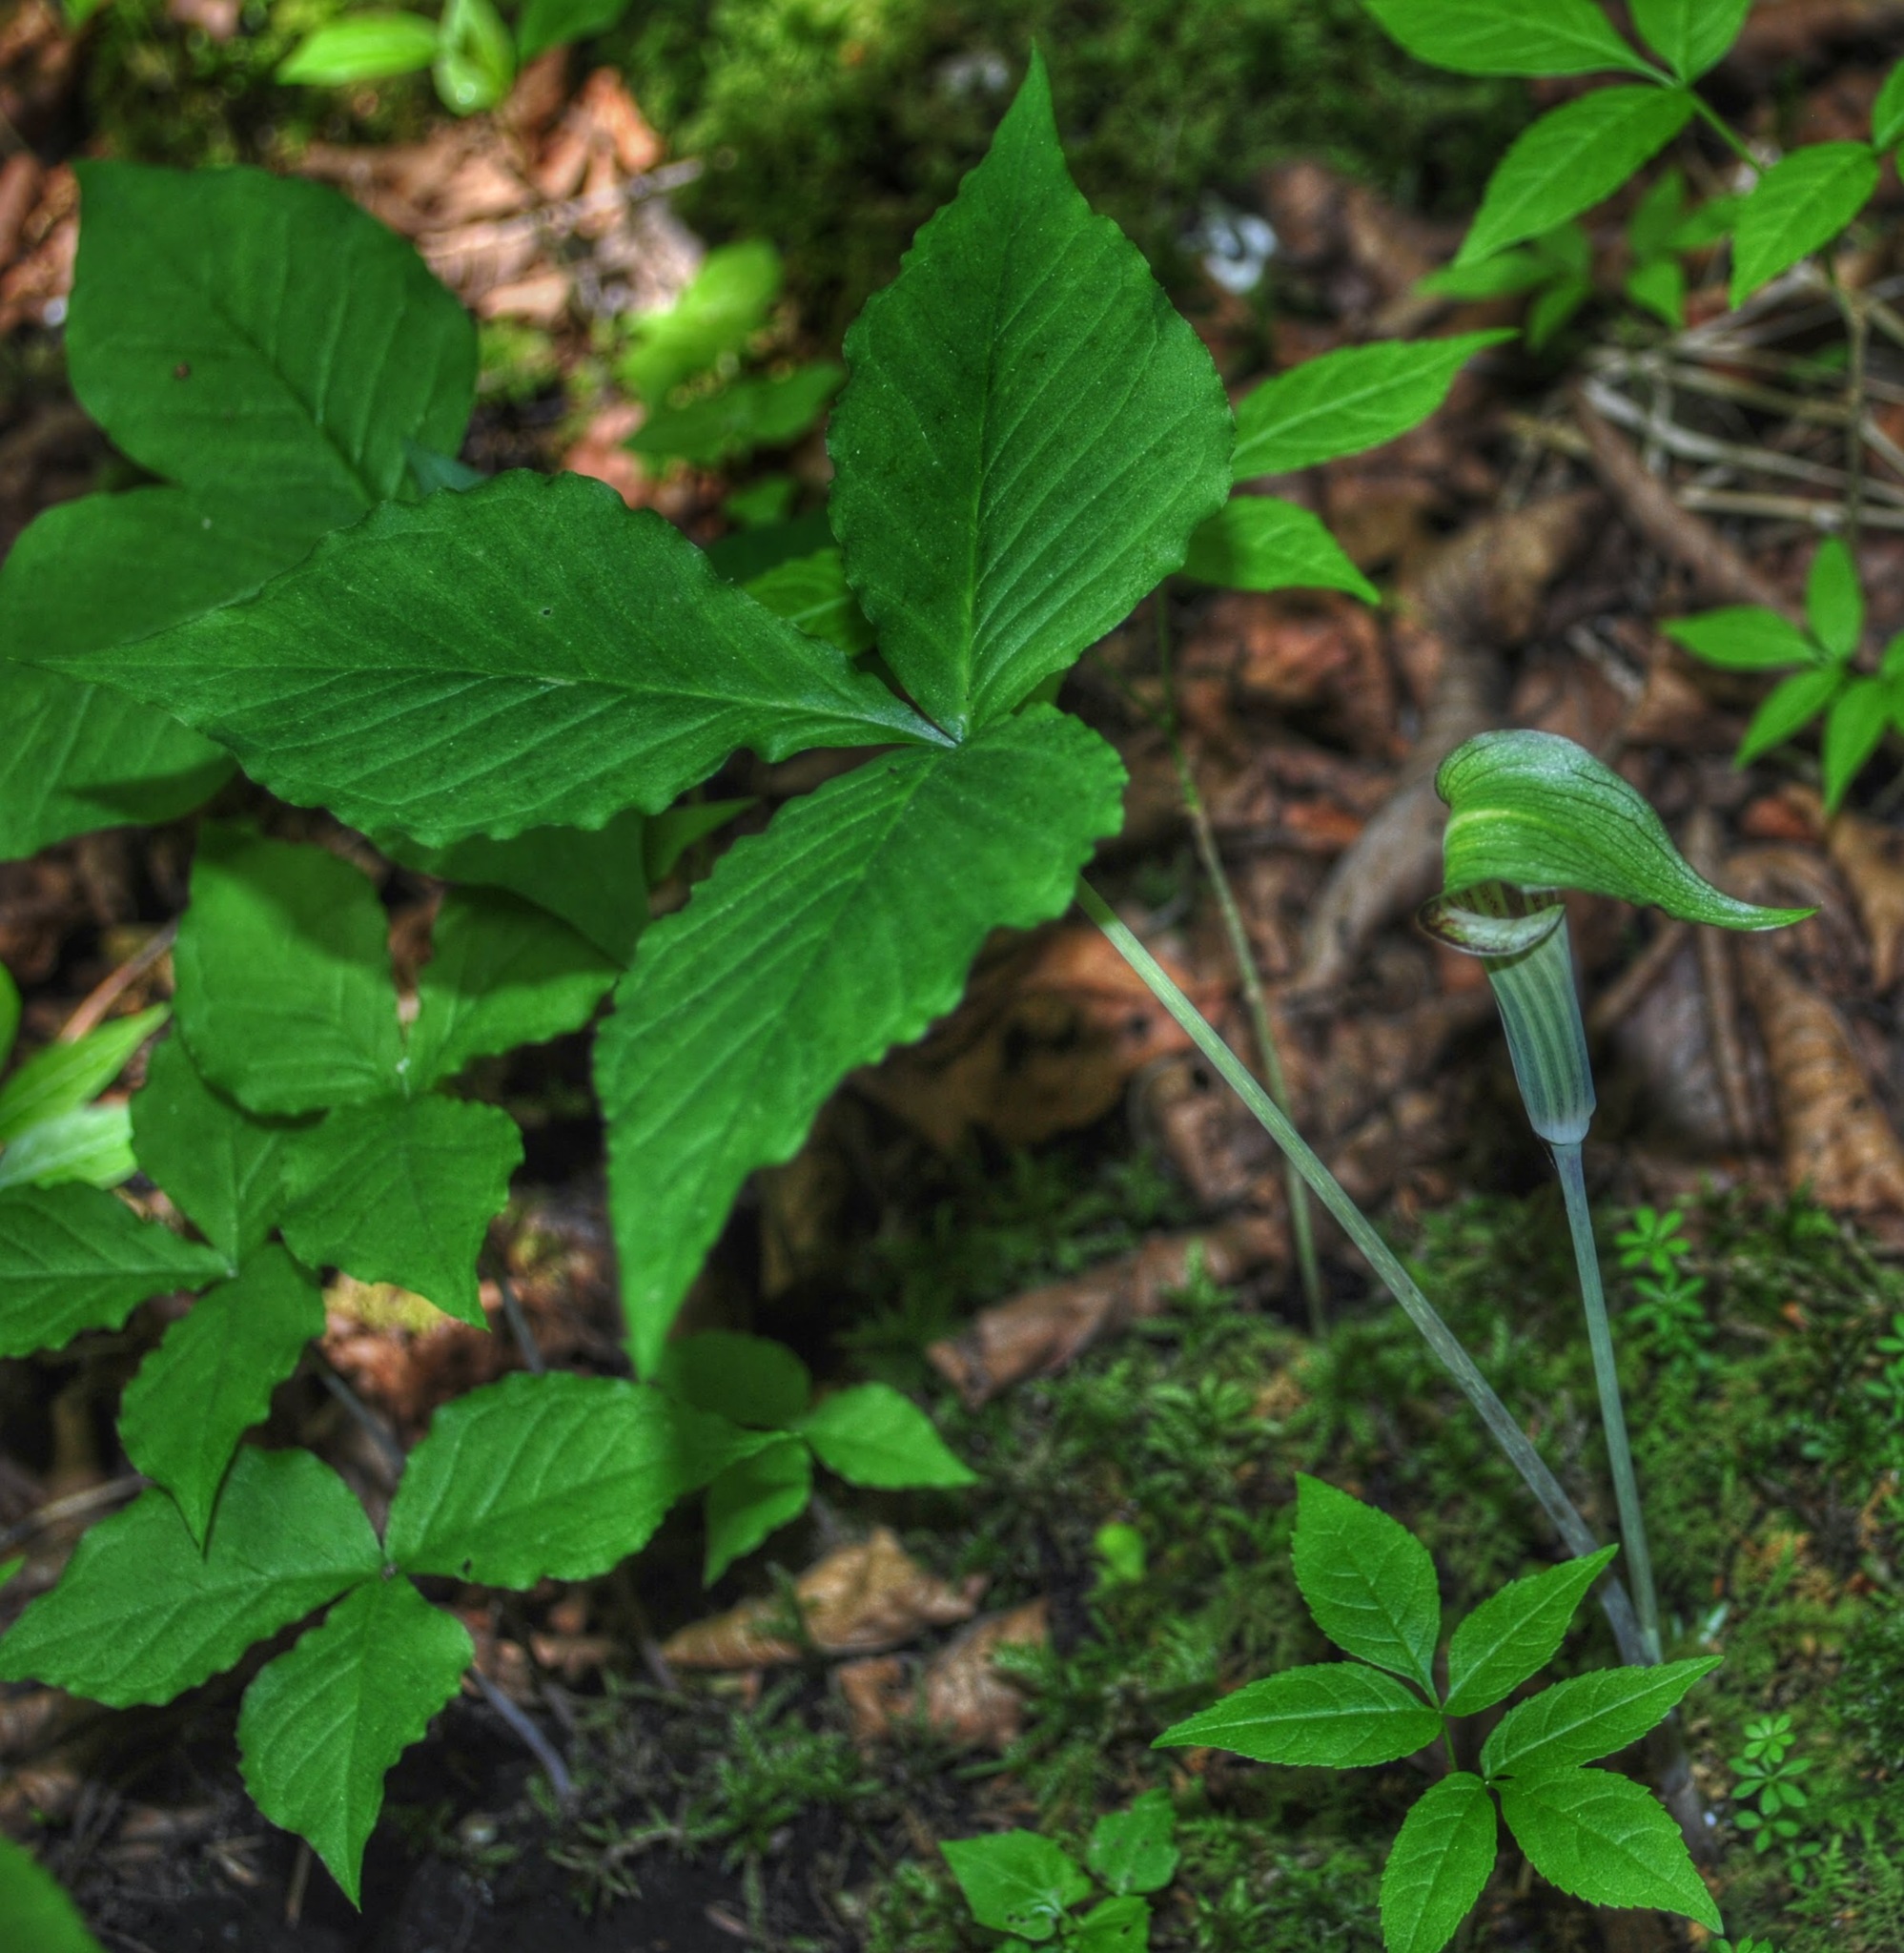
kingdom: Plantae
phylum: Tracheophyta
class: Liliopsida
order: Alismatales
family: Araceae
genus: Arisaema
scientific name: Arisaema triphyllum
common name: Jack-in-the-pulpit
